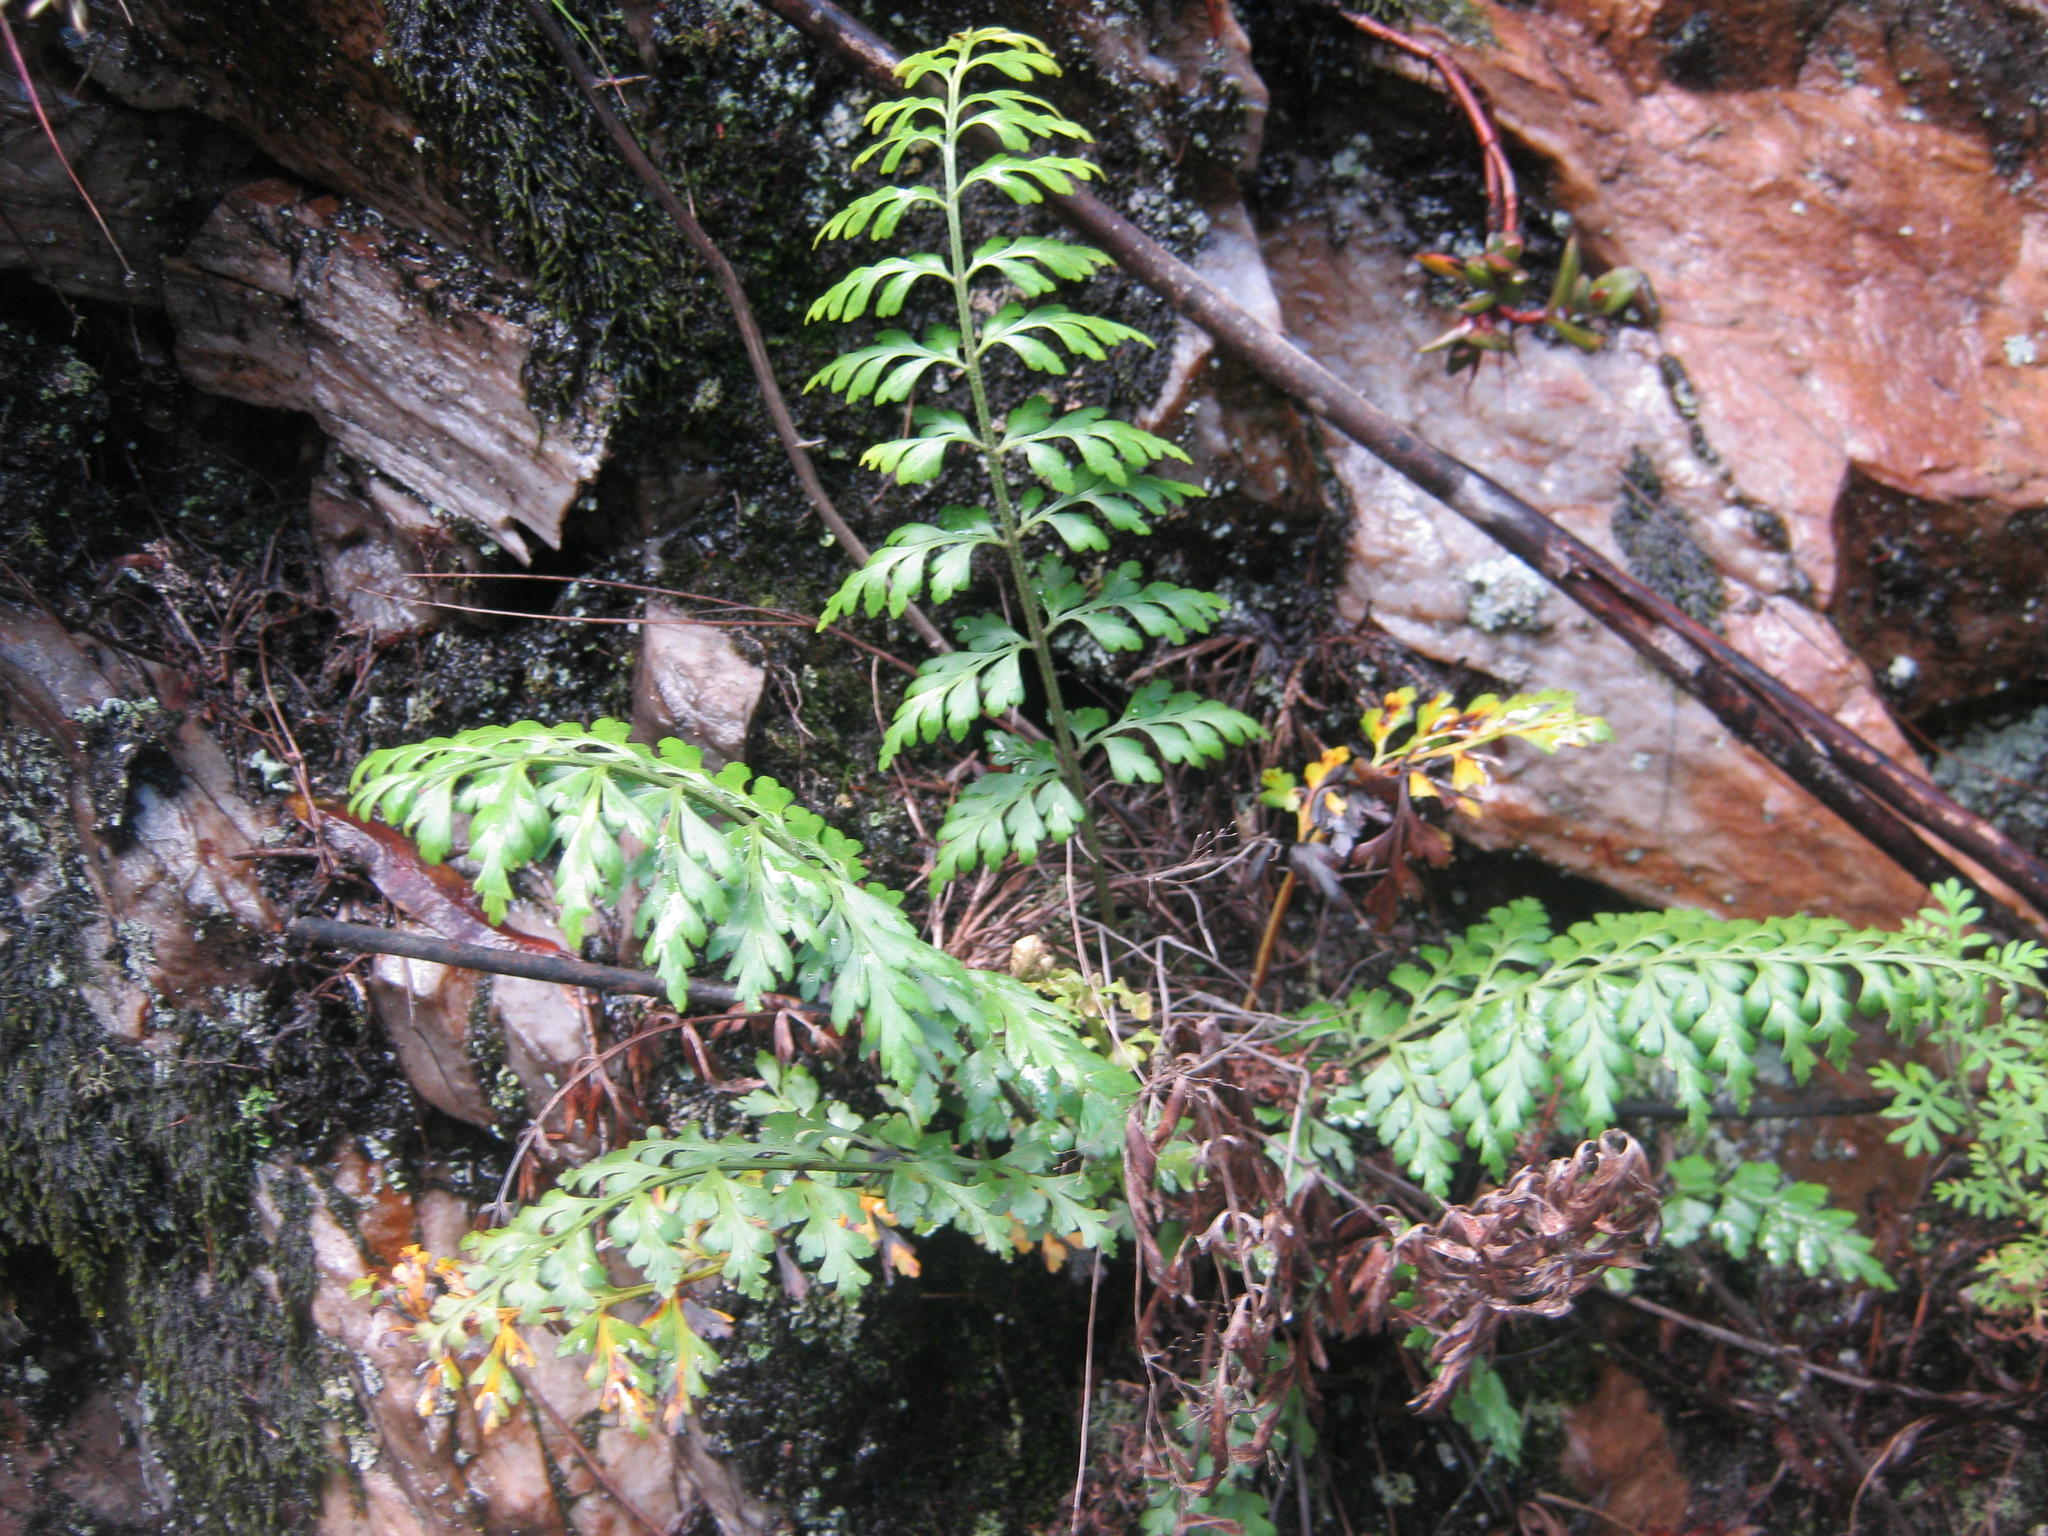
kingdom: Plantae
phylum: Tracheophyta
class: Polypodiopsida
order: Polypodiales
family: Aspleniaceae
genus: Asplenium
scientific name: Asplenium aethiopicum
